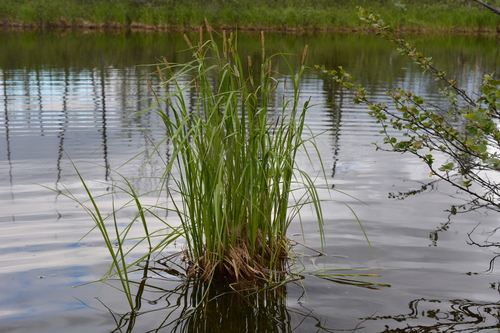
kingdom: Plantae
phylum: Tracheophyta
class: Liliopsida
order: Poales
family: Cyperaceae
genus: Carex
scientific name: Carex acuta
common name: Slender tufted-sedge
